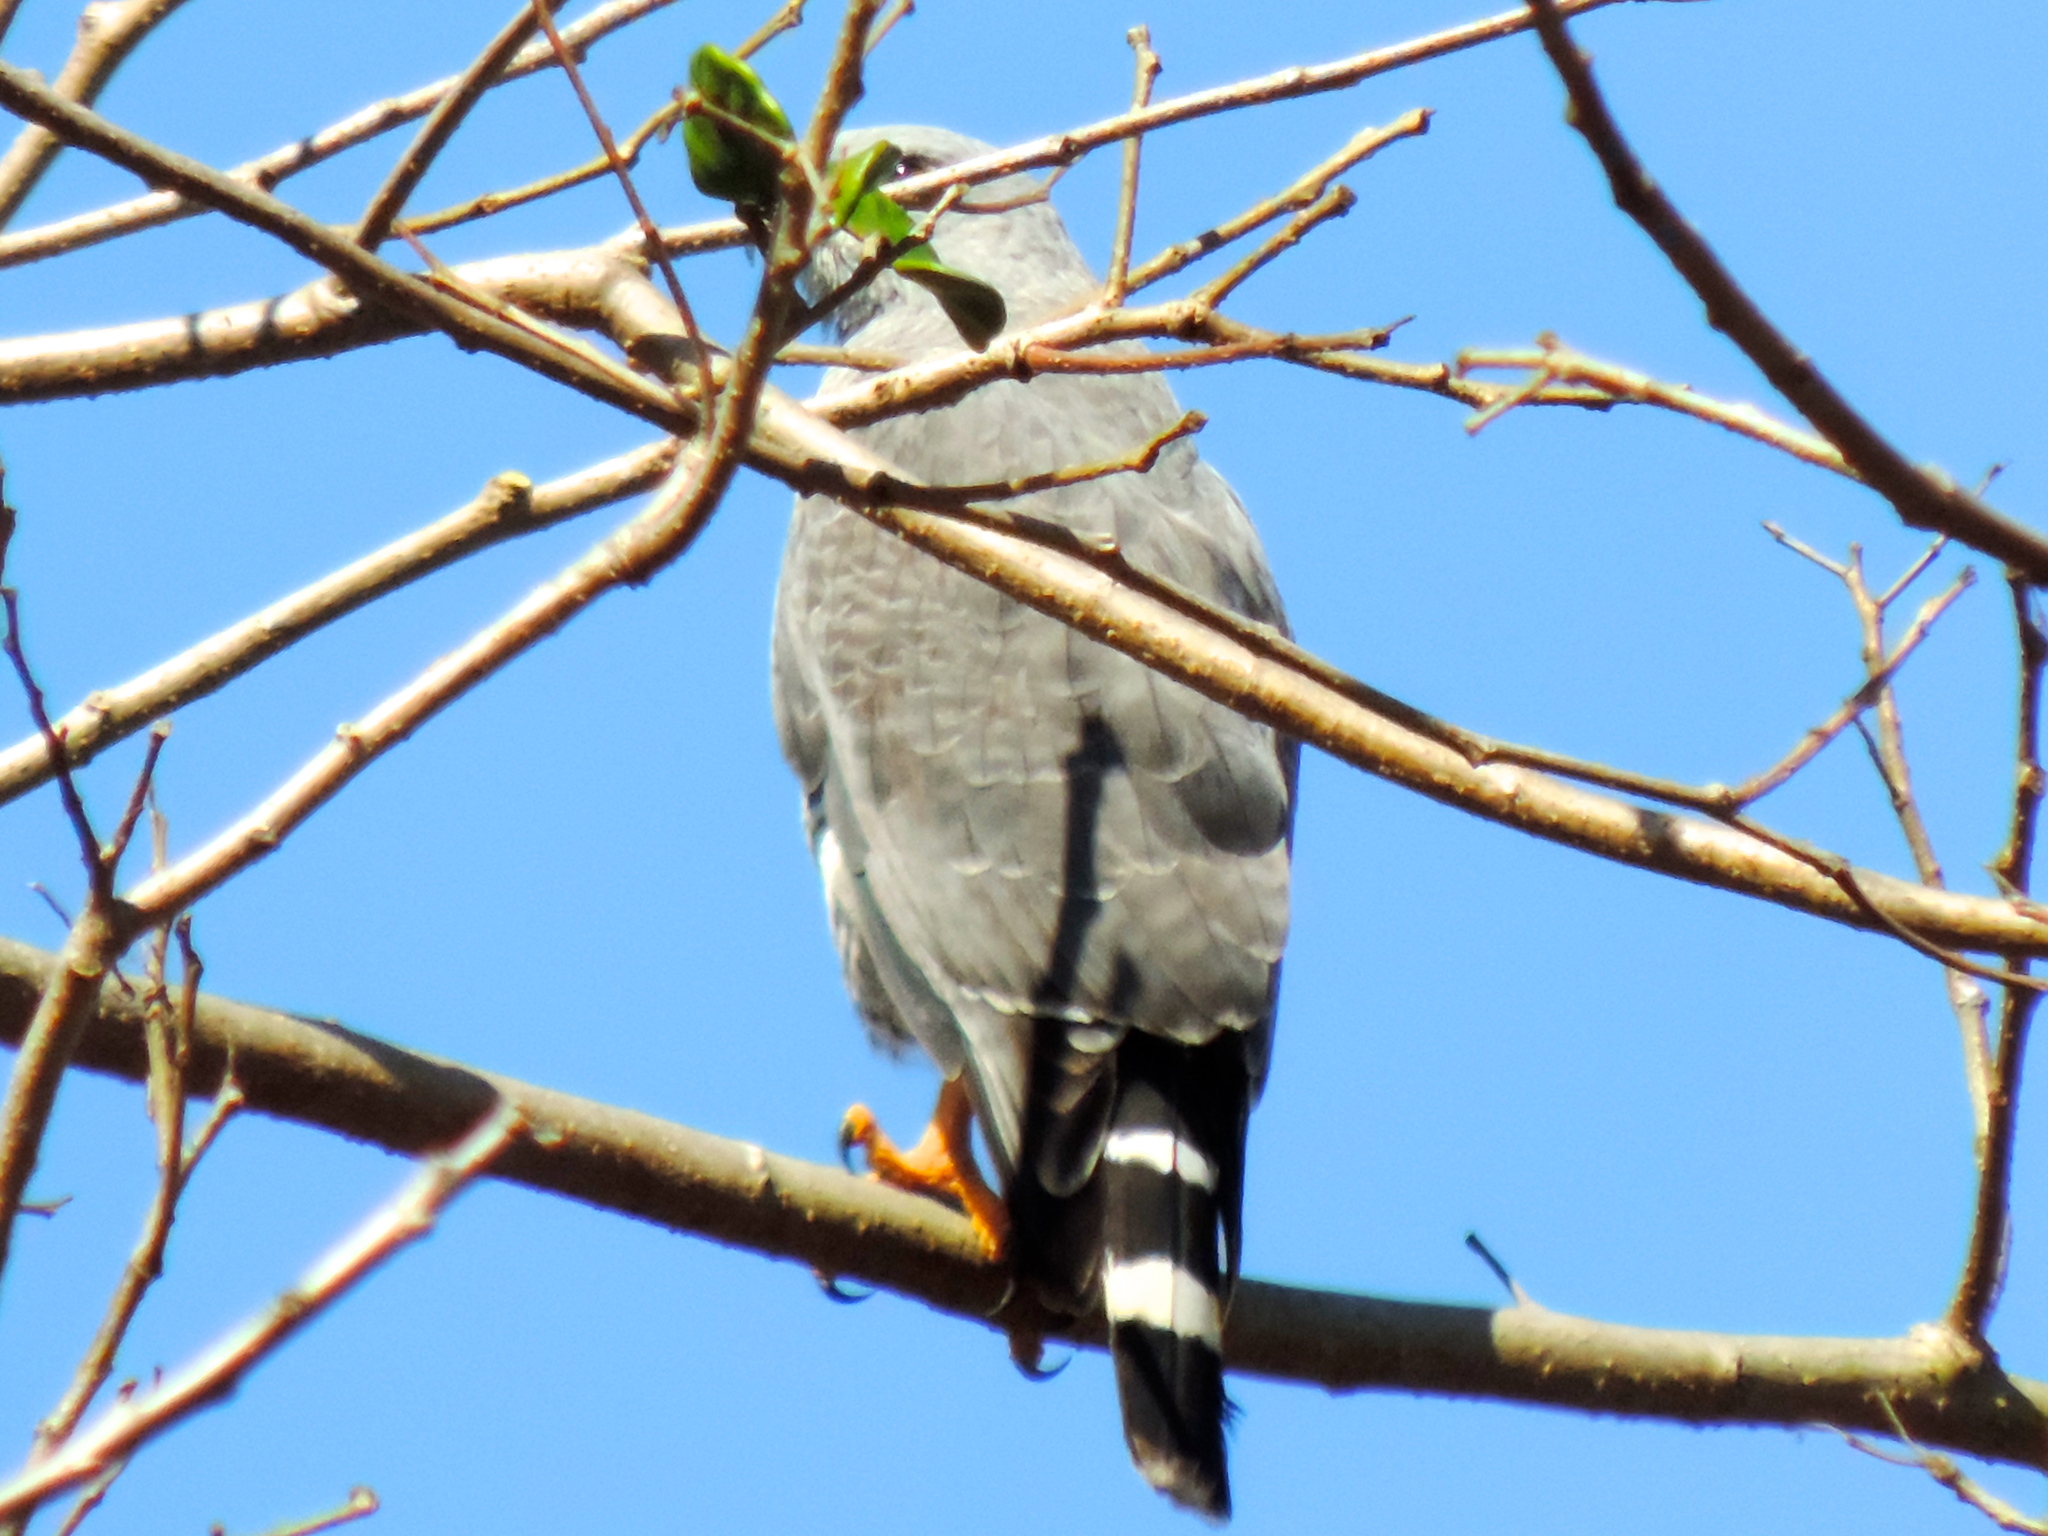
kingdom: Animalia
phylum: Chordata
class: Aves
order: Accipitriformes
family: Accipitridae
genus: Buteo
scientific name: Buteo nitidus
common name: Grey-lined hawk
